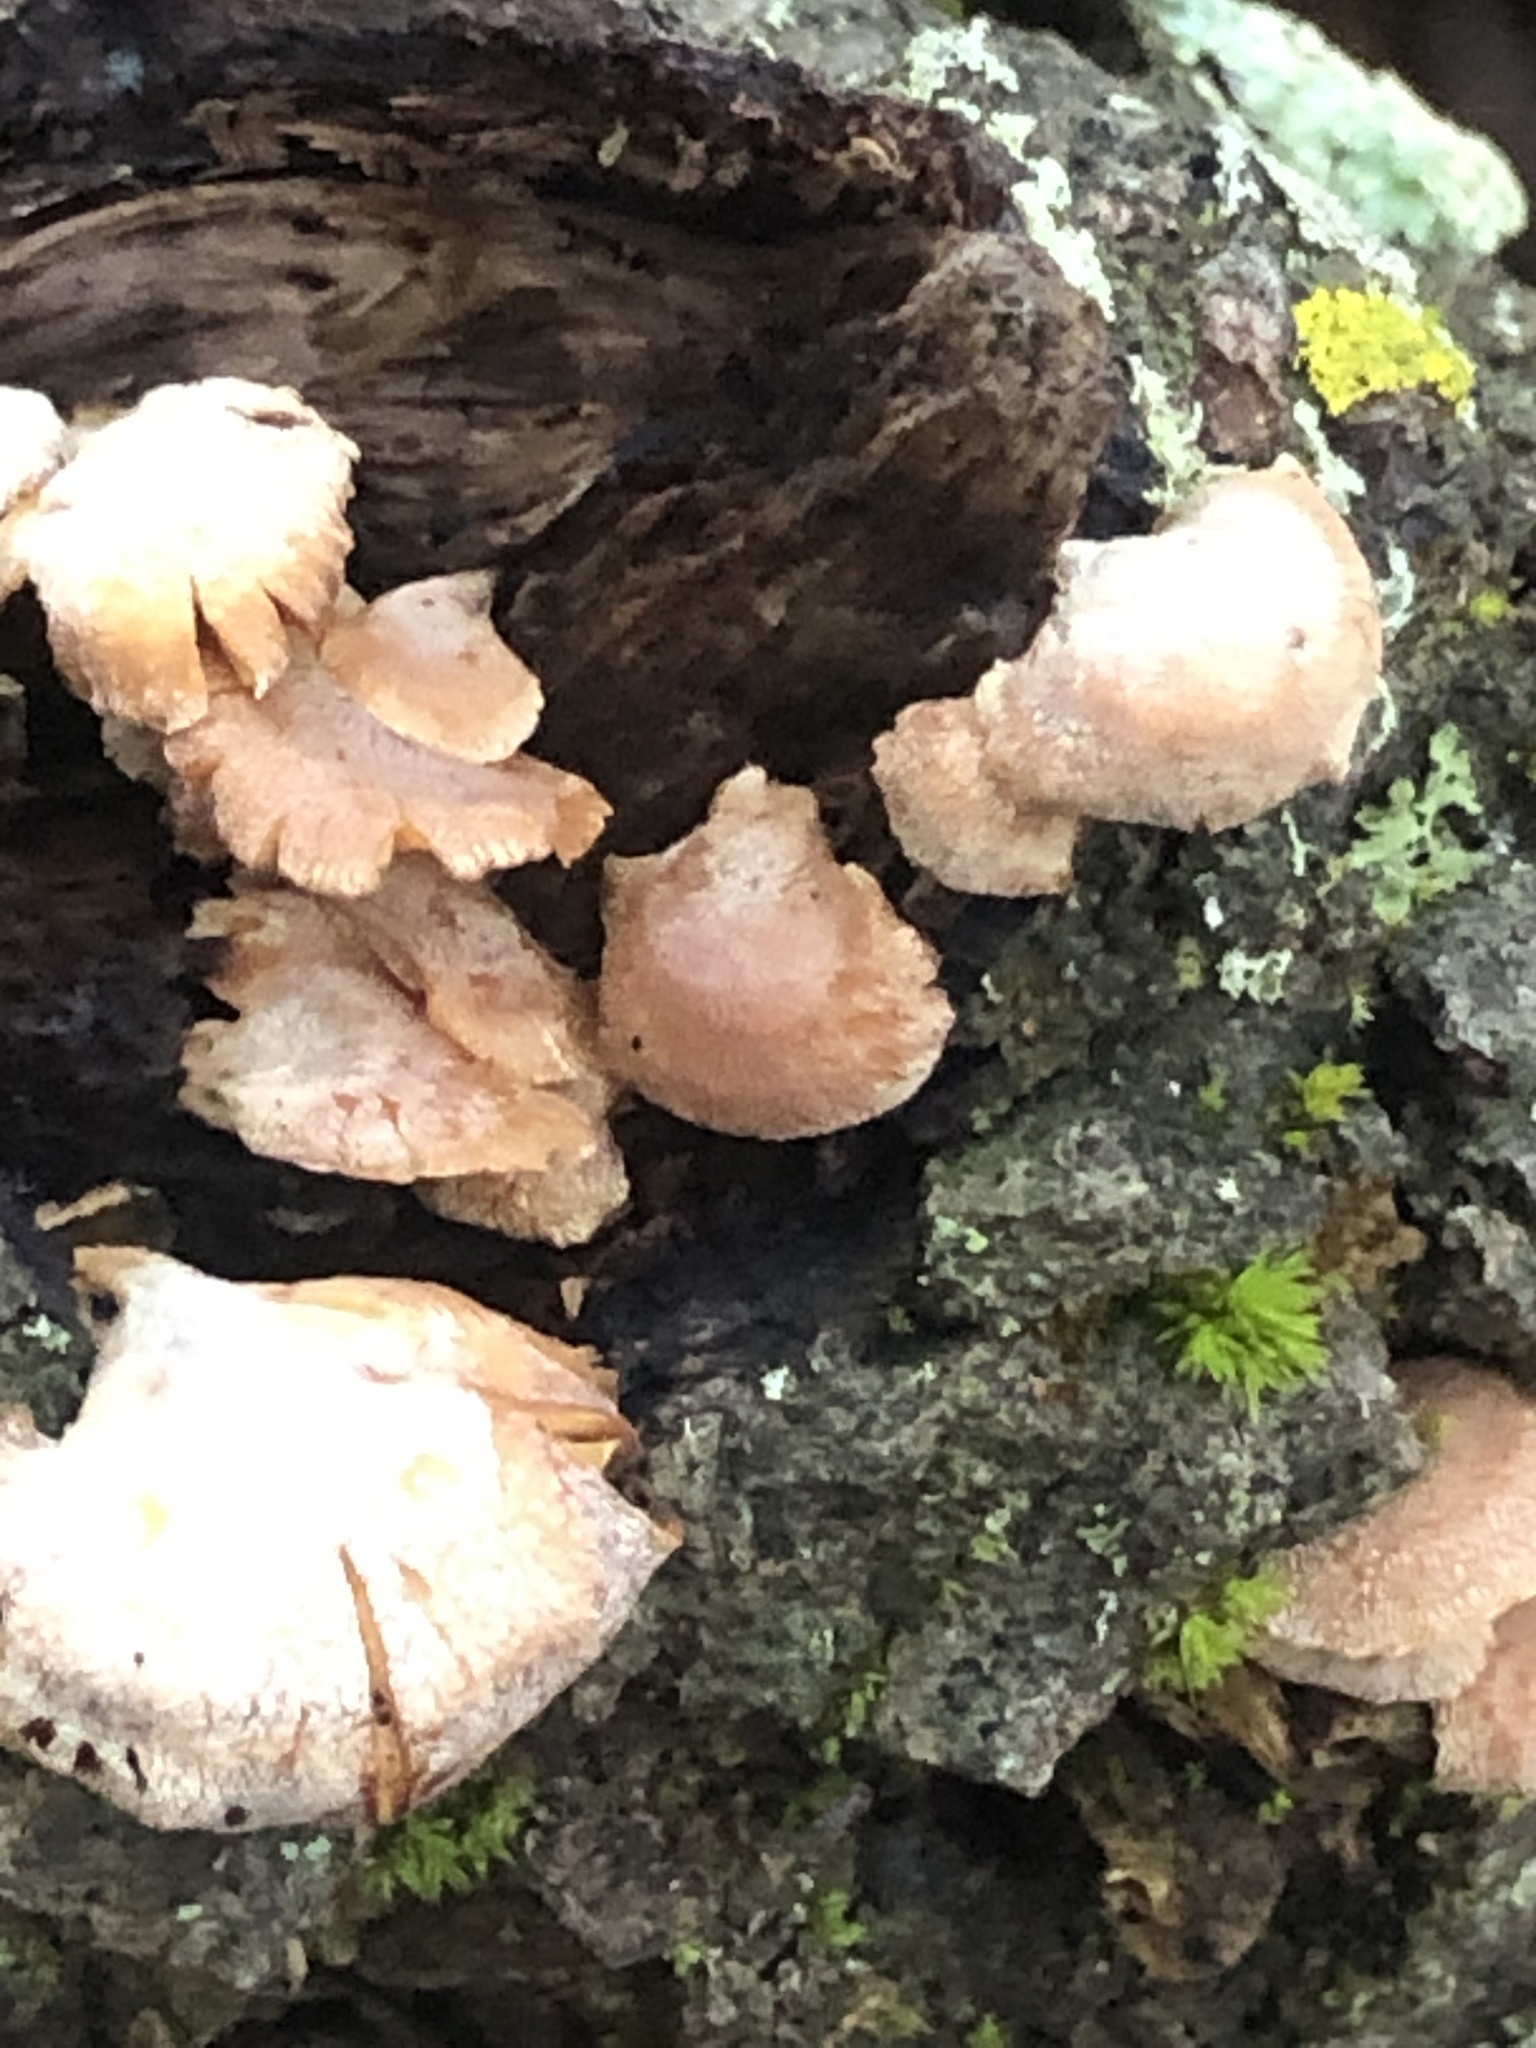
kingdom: Fungi
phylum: Basidiomycota
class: Agaricomycetes
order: Agaricales
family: Mycenaceae
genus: Panellus
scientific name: Panellus stipticus
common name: Bitter oysterling
